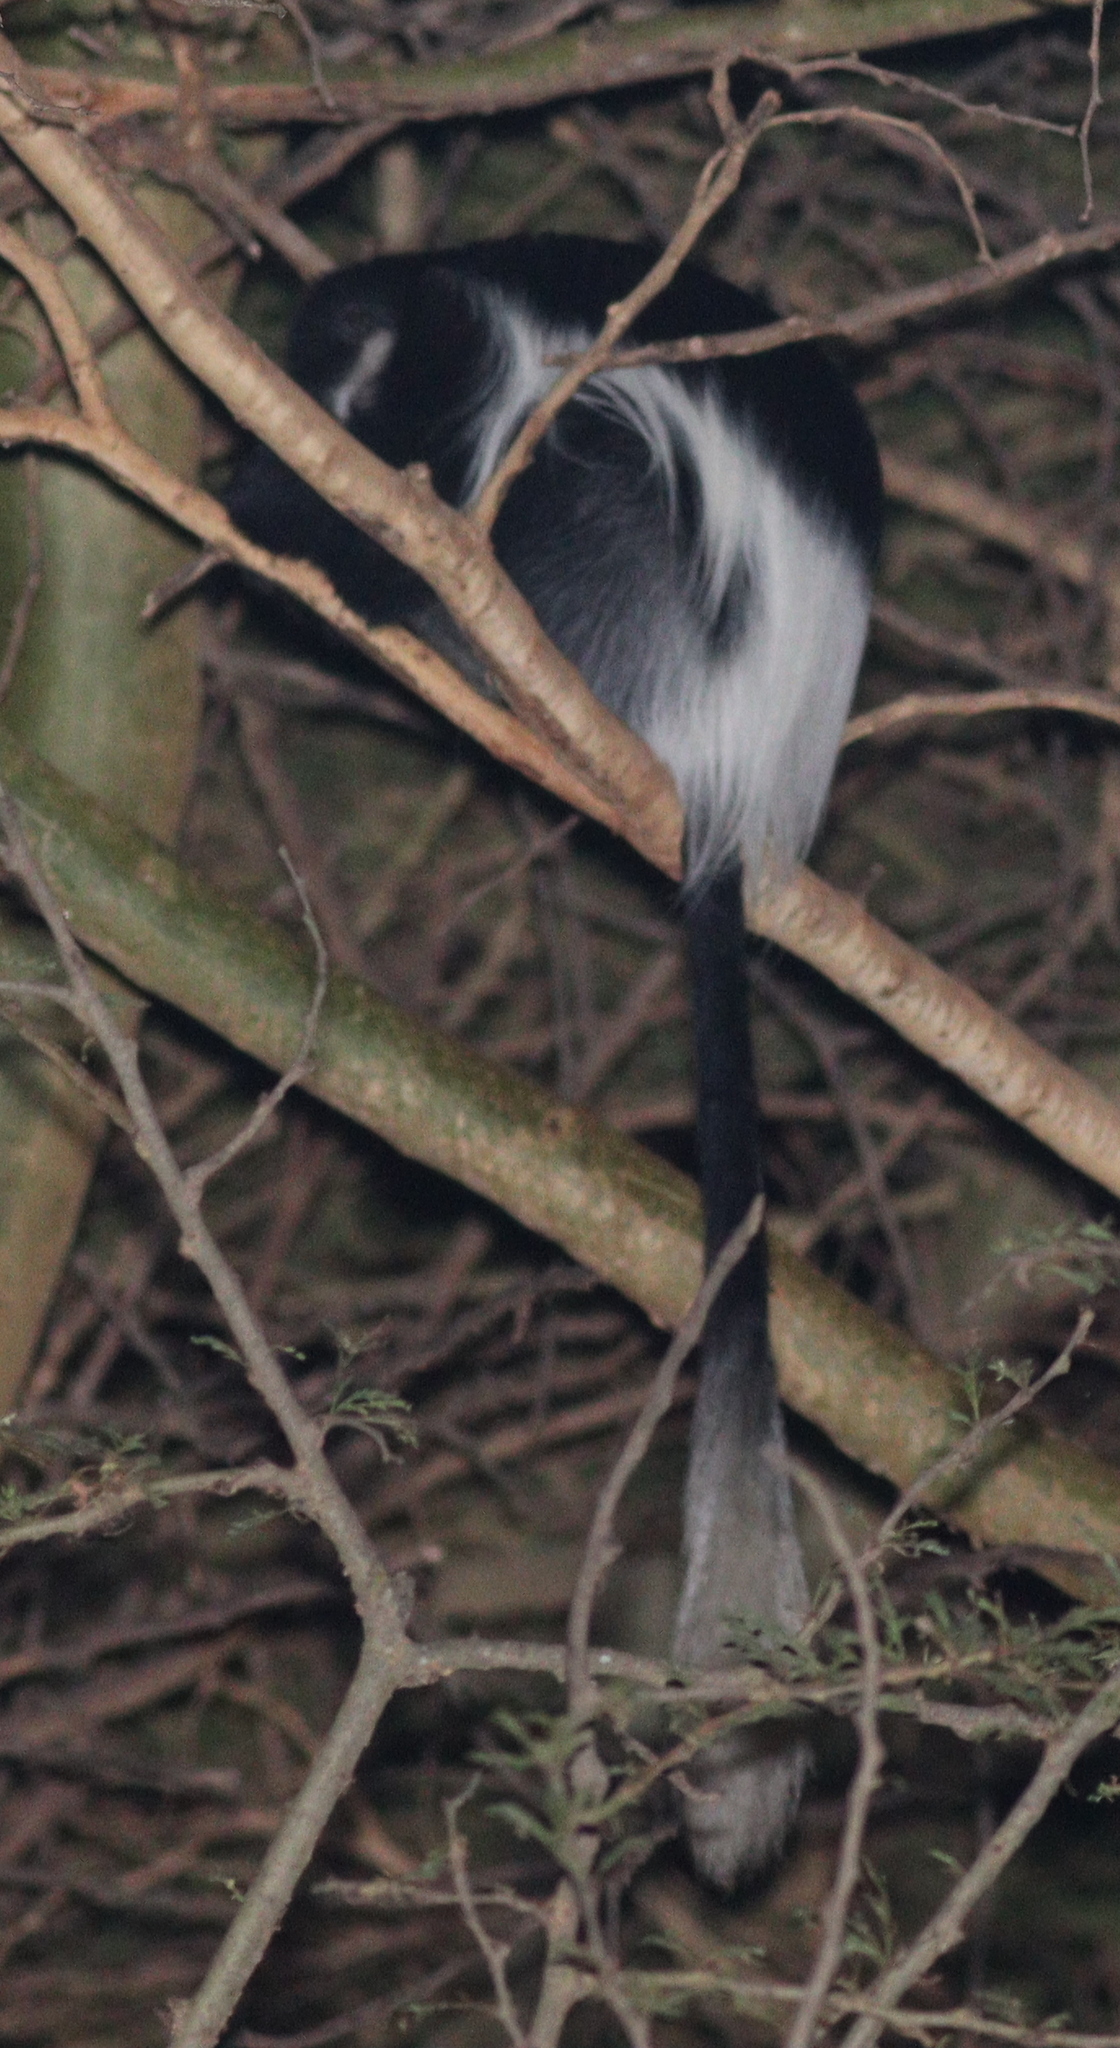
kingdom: Animalia
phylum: Chordata
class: Mammalia
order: Primates
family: Cercopithecidae
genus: Colobus
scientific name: Colobus guereza
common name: Mantled guereza
